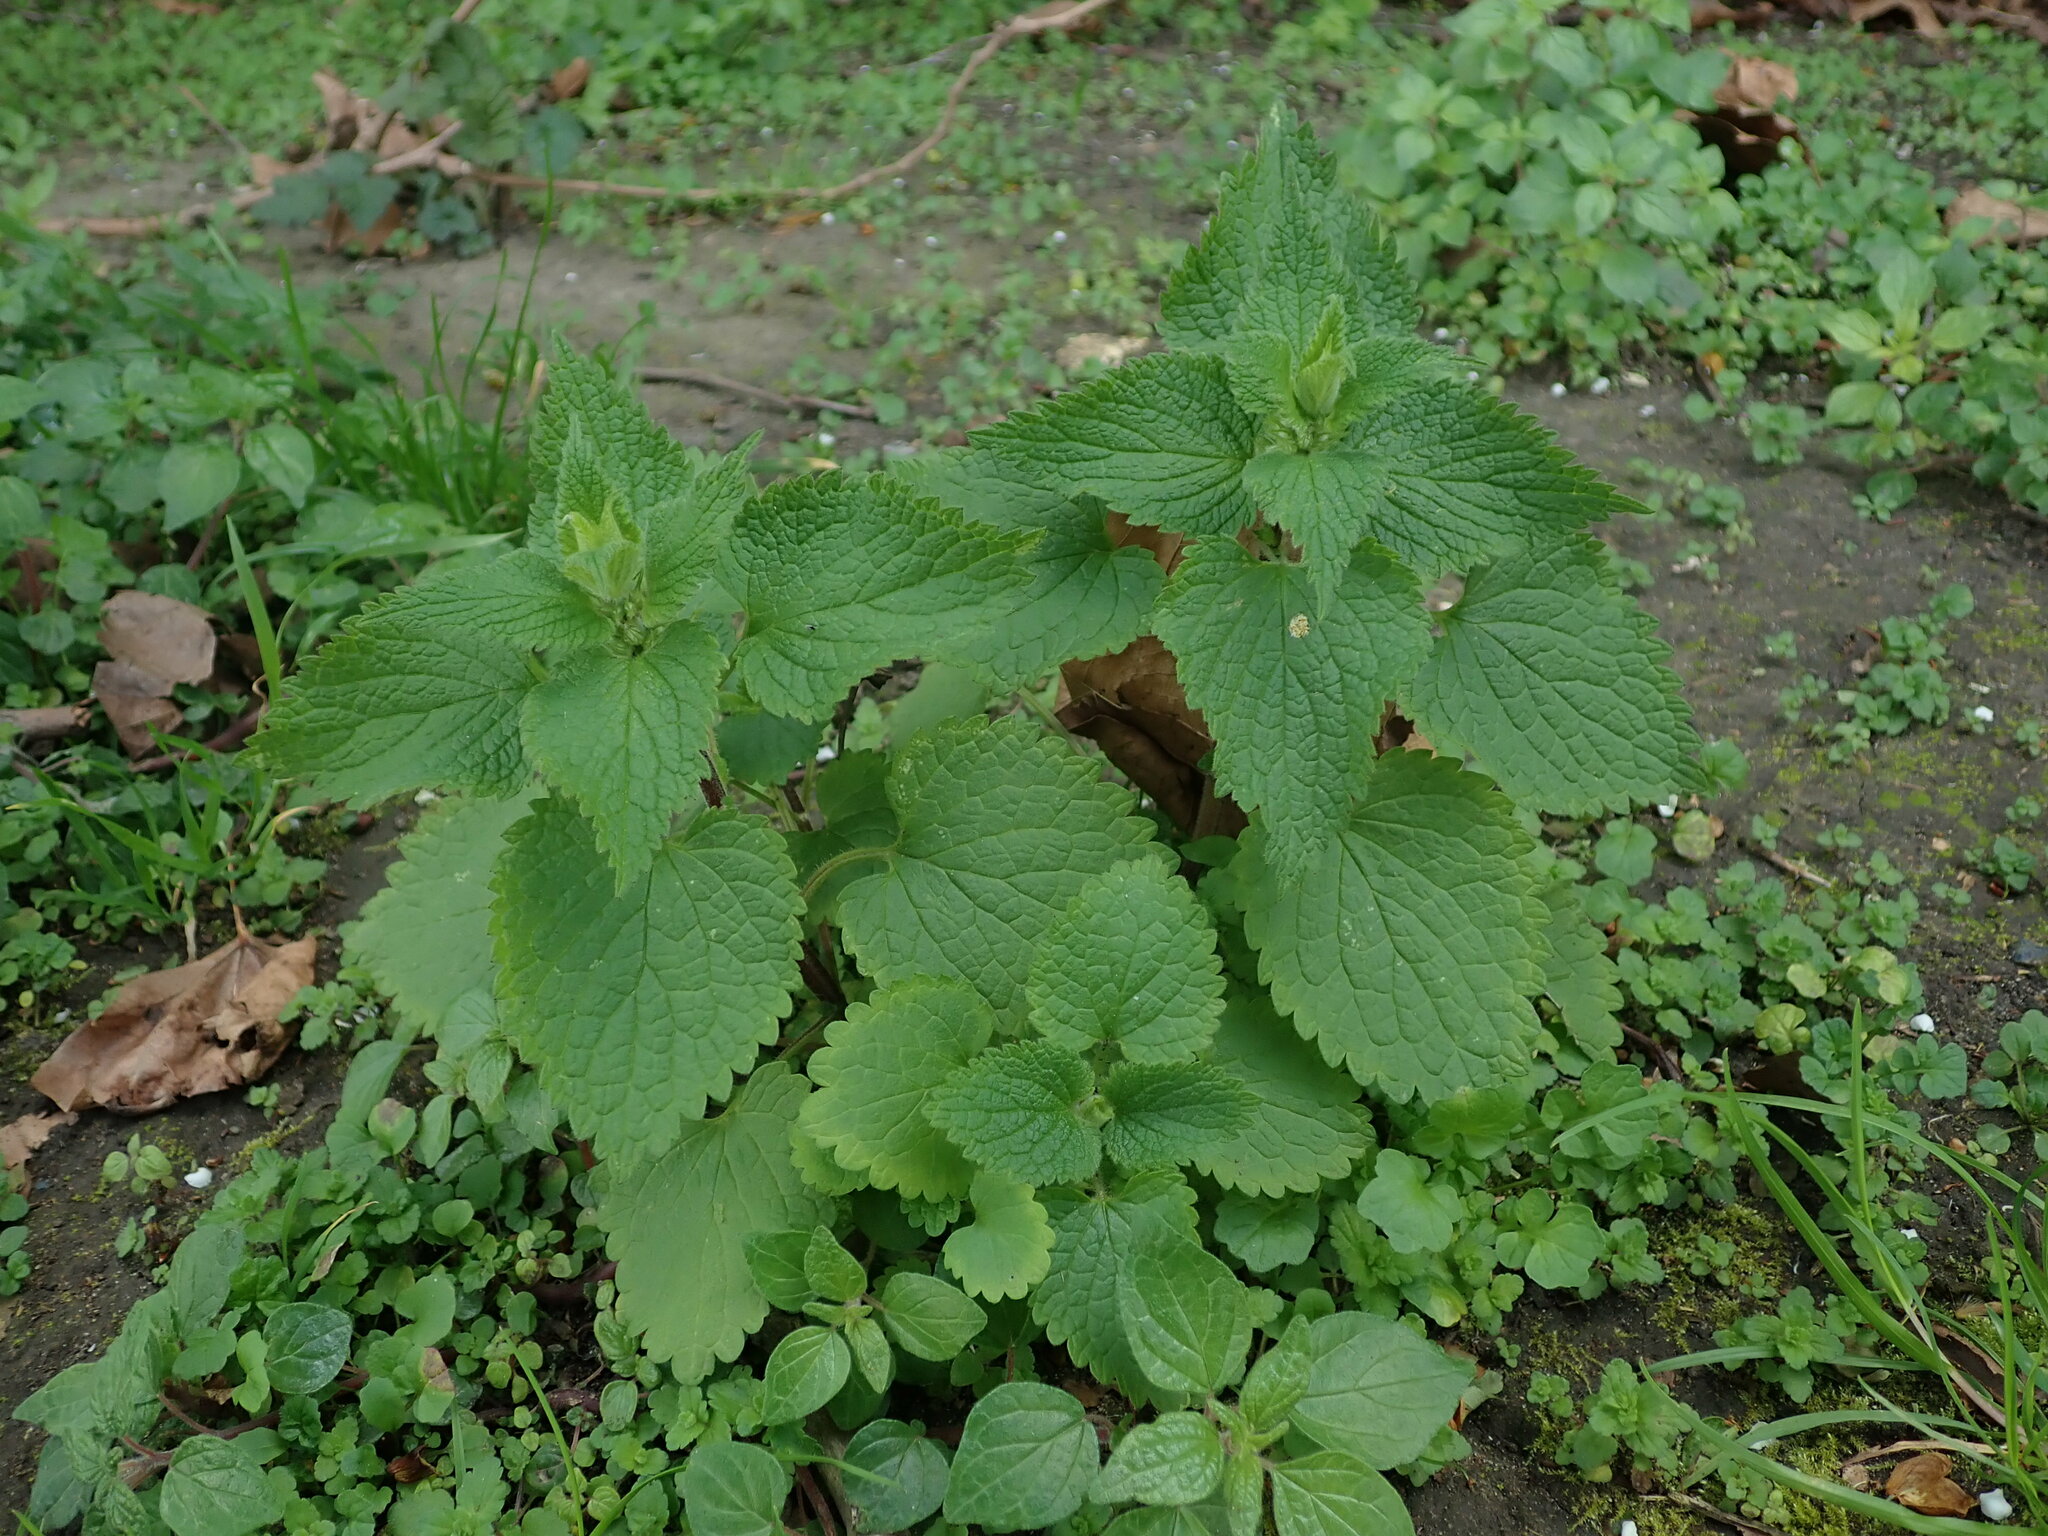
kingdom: Plantae
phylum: Tracheophyta
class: Magnoliopsida
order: Lamiales
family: Lamiaceae
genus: Lamium
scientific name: Lamium album
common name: White dead-nettle
